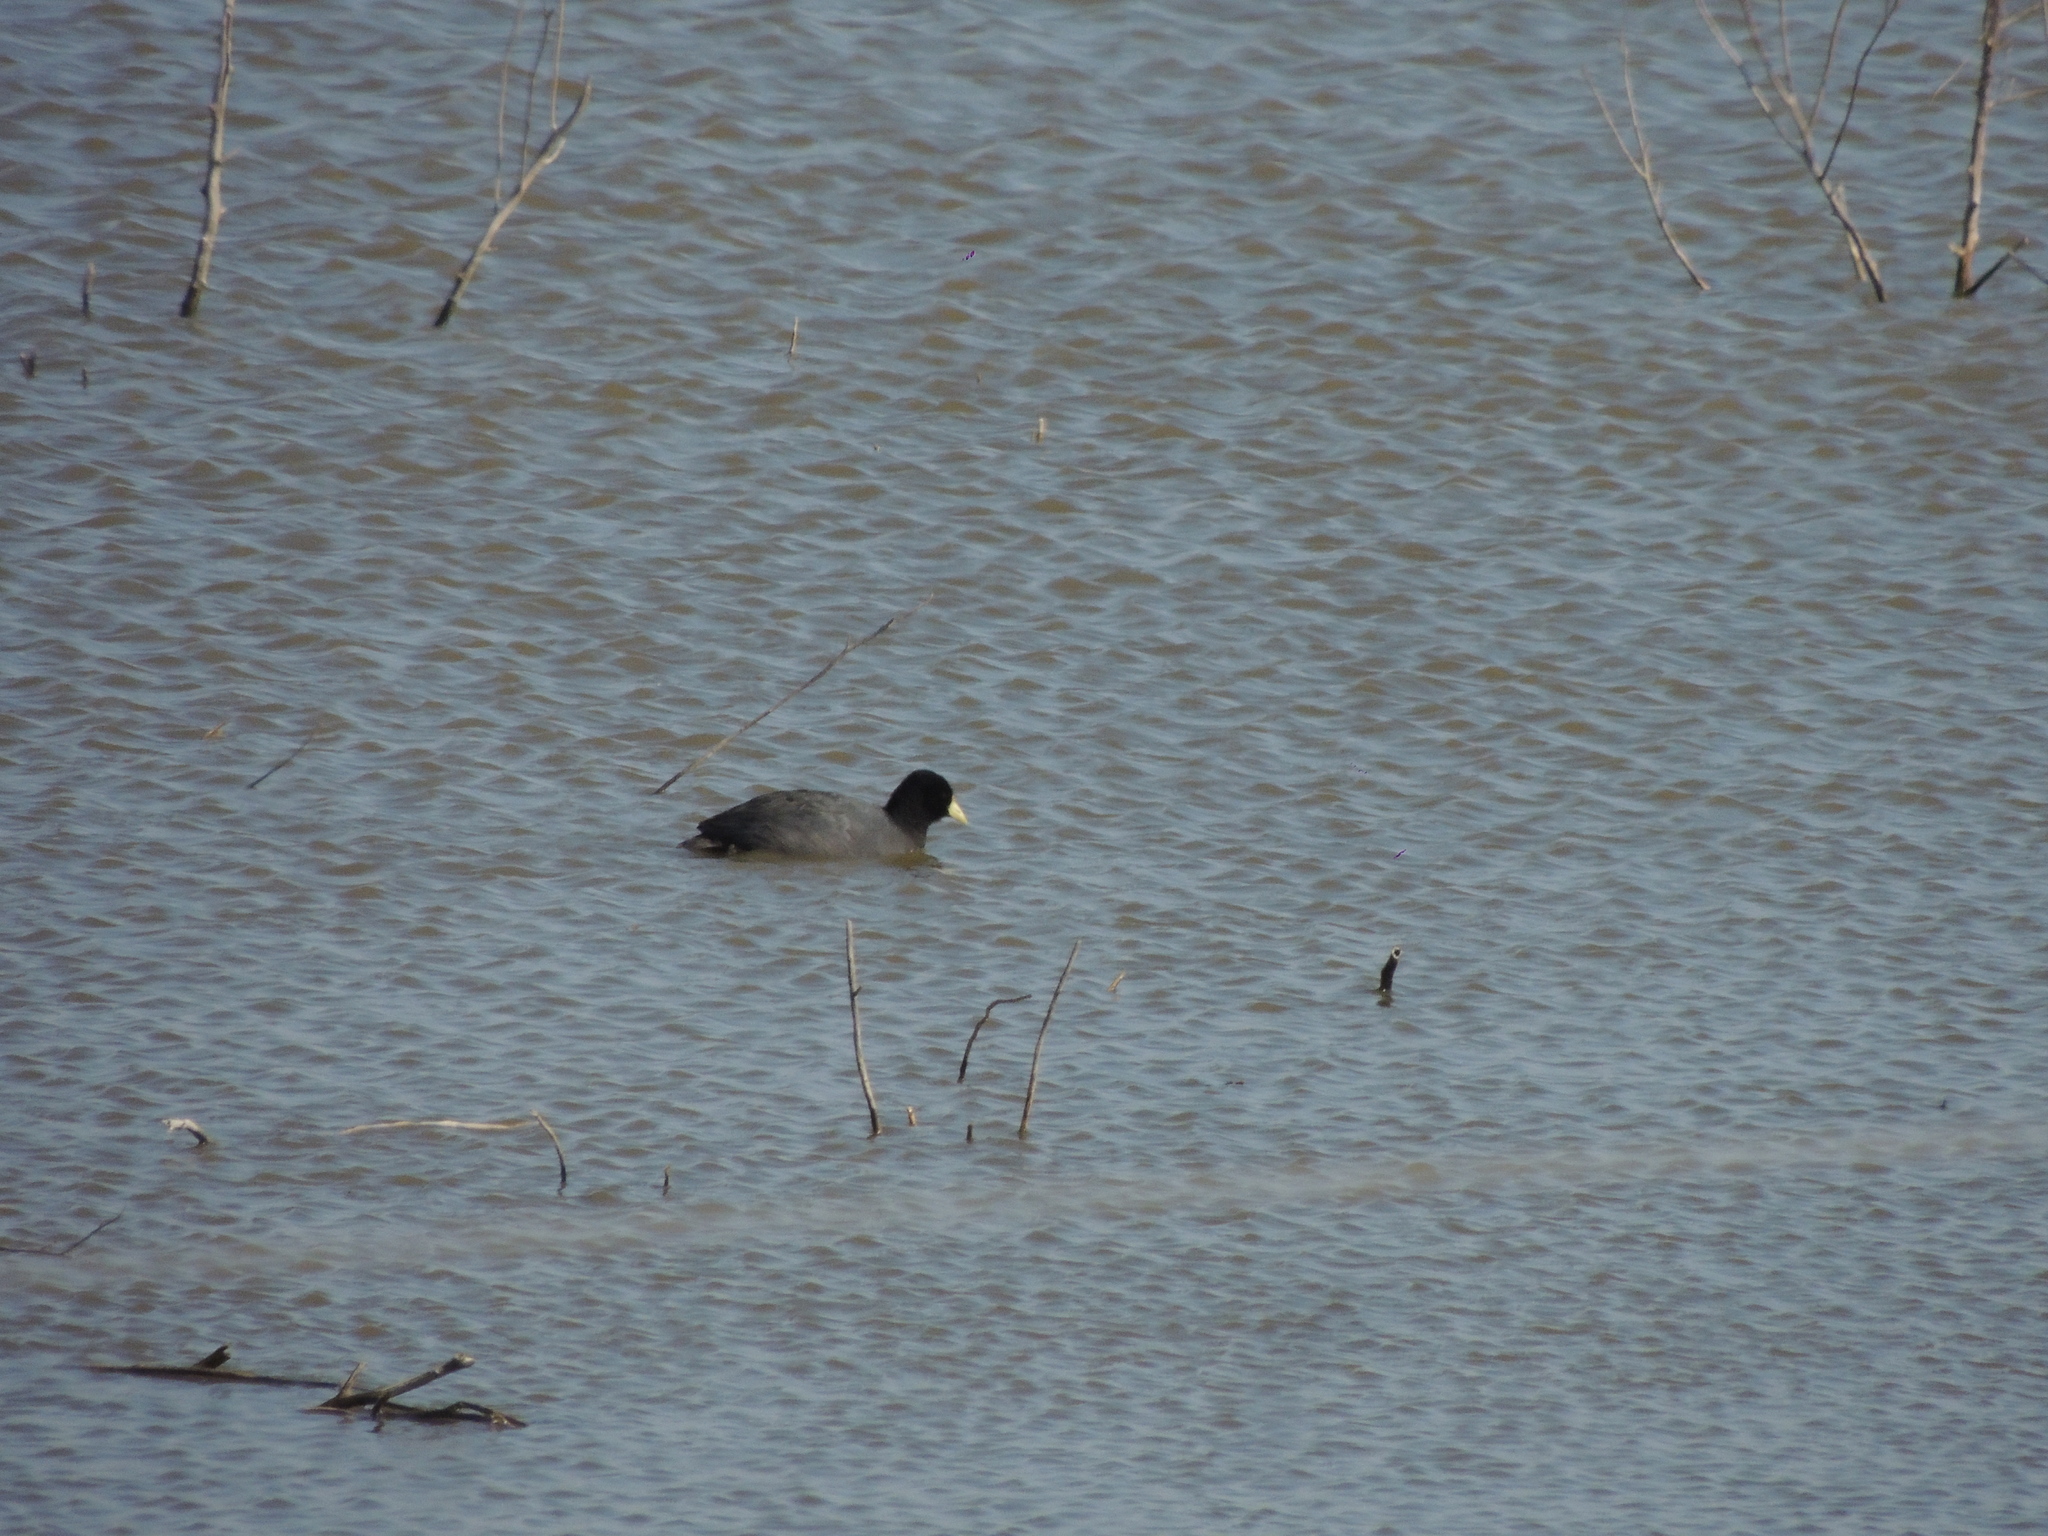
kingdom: Animalia
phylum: Chordata
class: Aves
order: Gruiformes
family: Rallidae
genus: Fulica
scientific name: Fulica leucoptera
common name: White-winged coot
